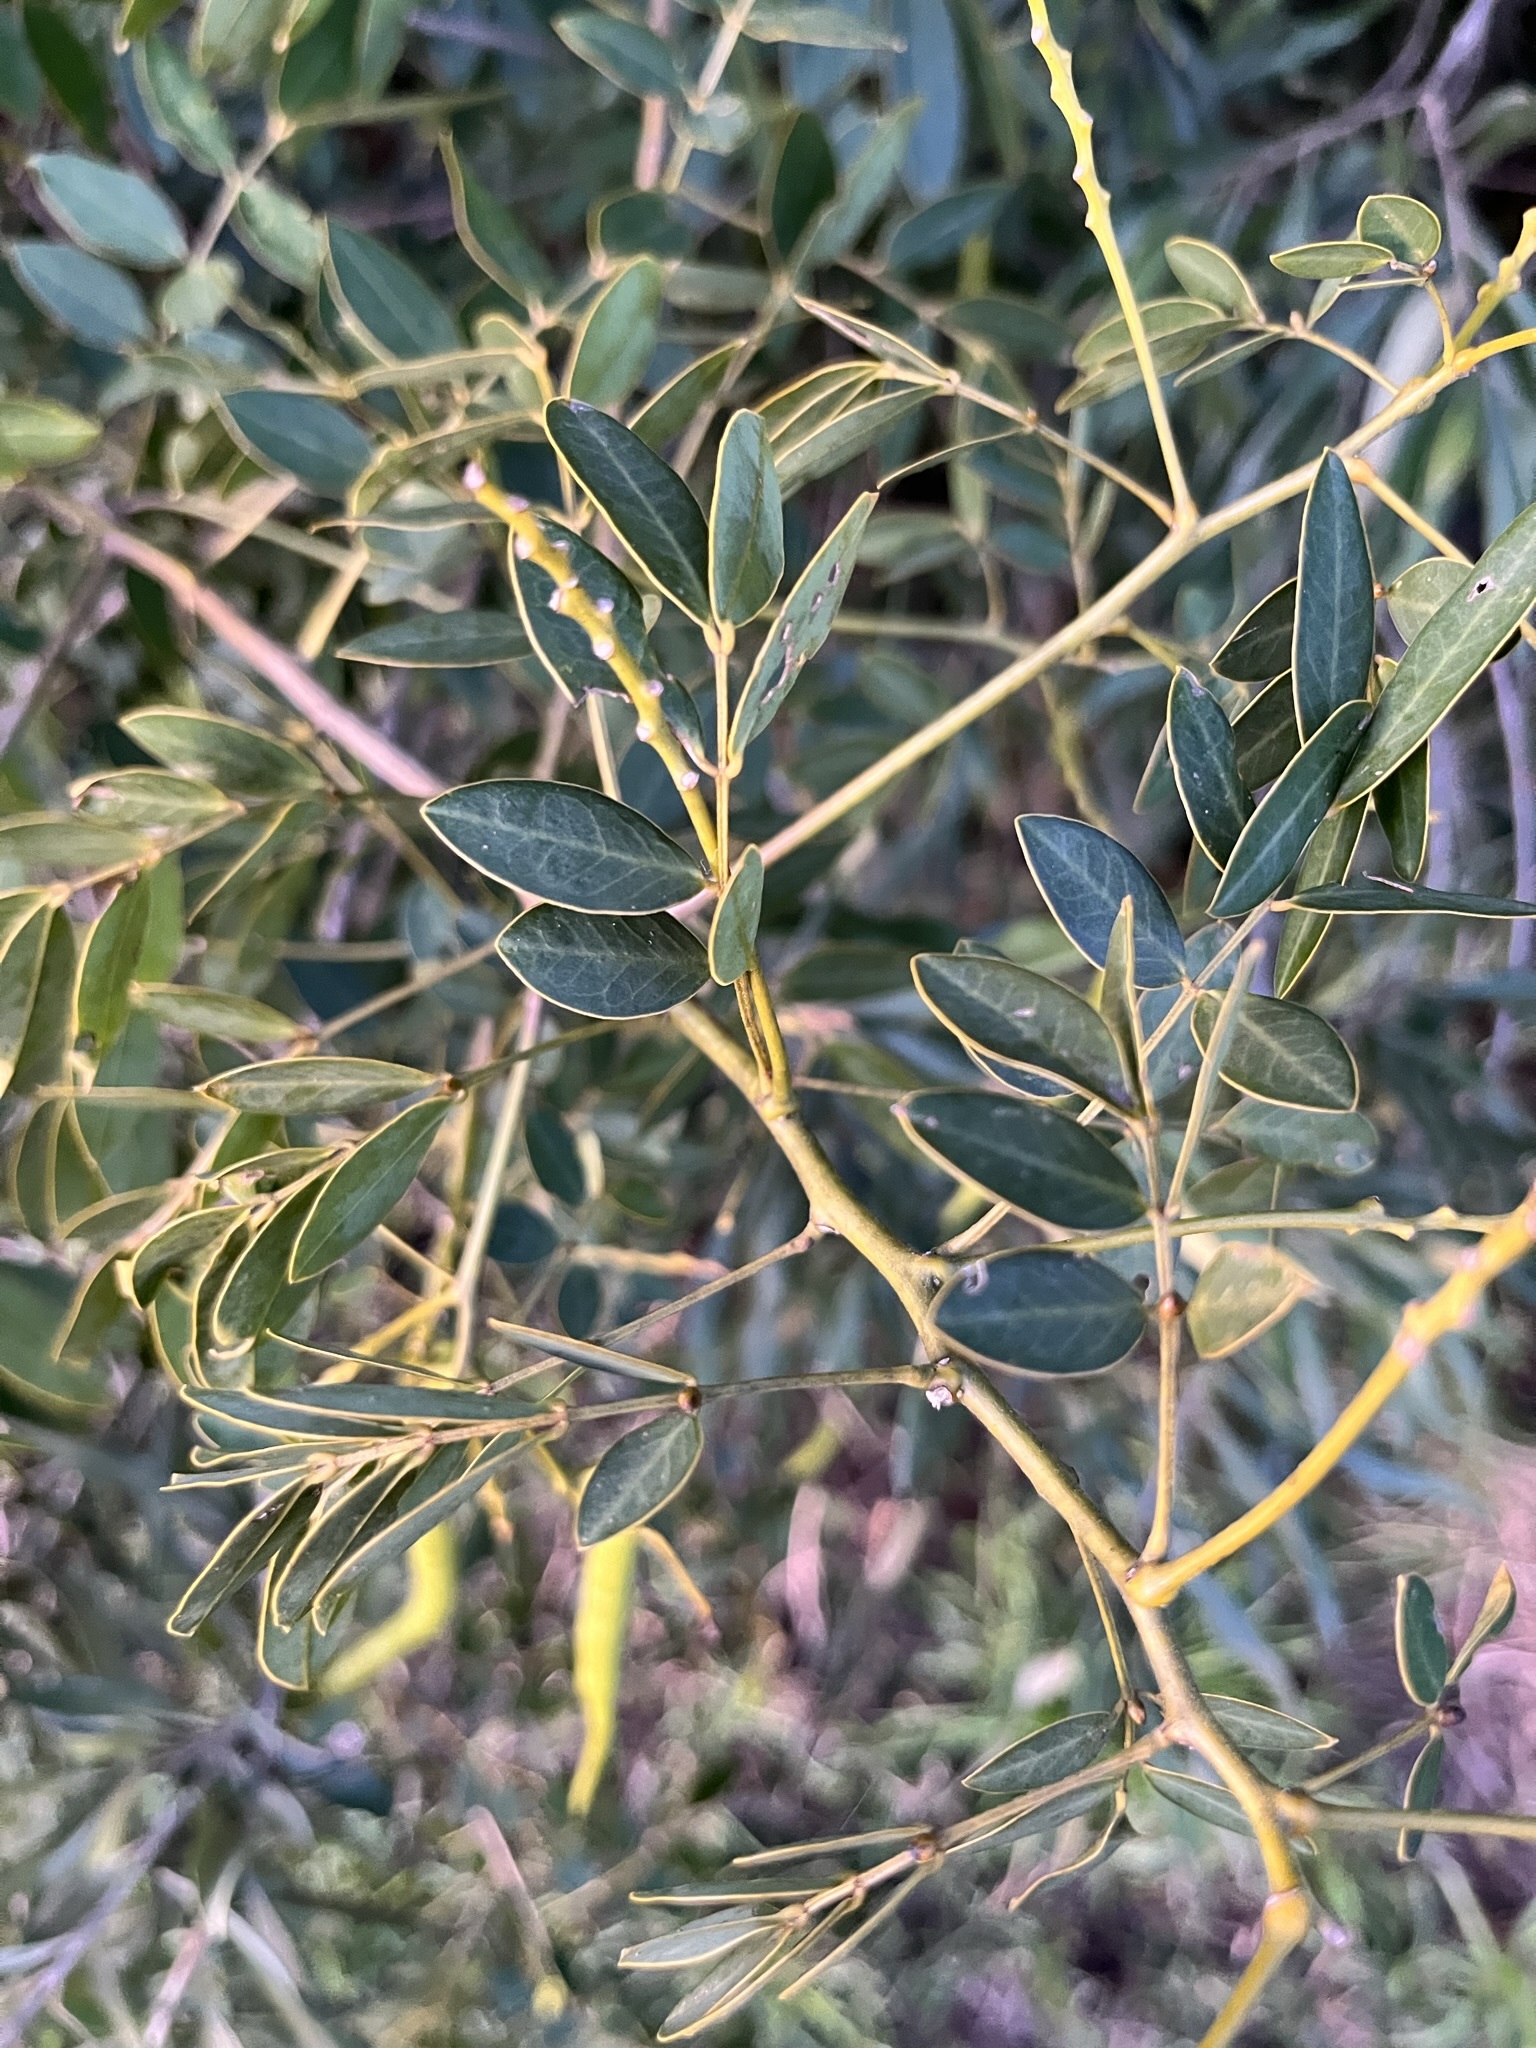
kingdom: Plantae
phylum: Tracheophyta
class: Magnoliopsida
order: Fabales
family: Fabaceae
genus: Senna
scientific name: Senna pendula
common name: Easter cassia
